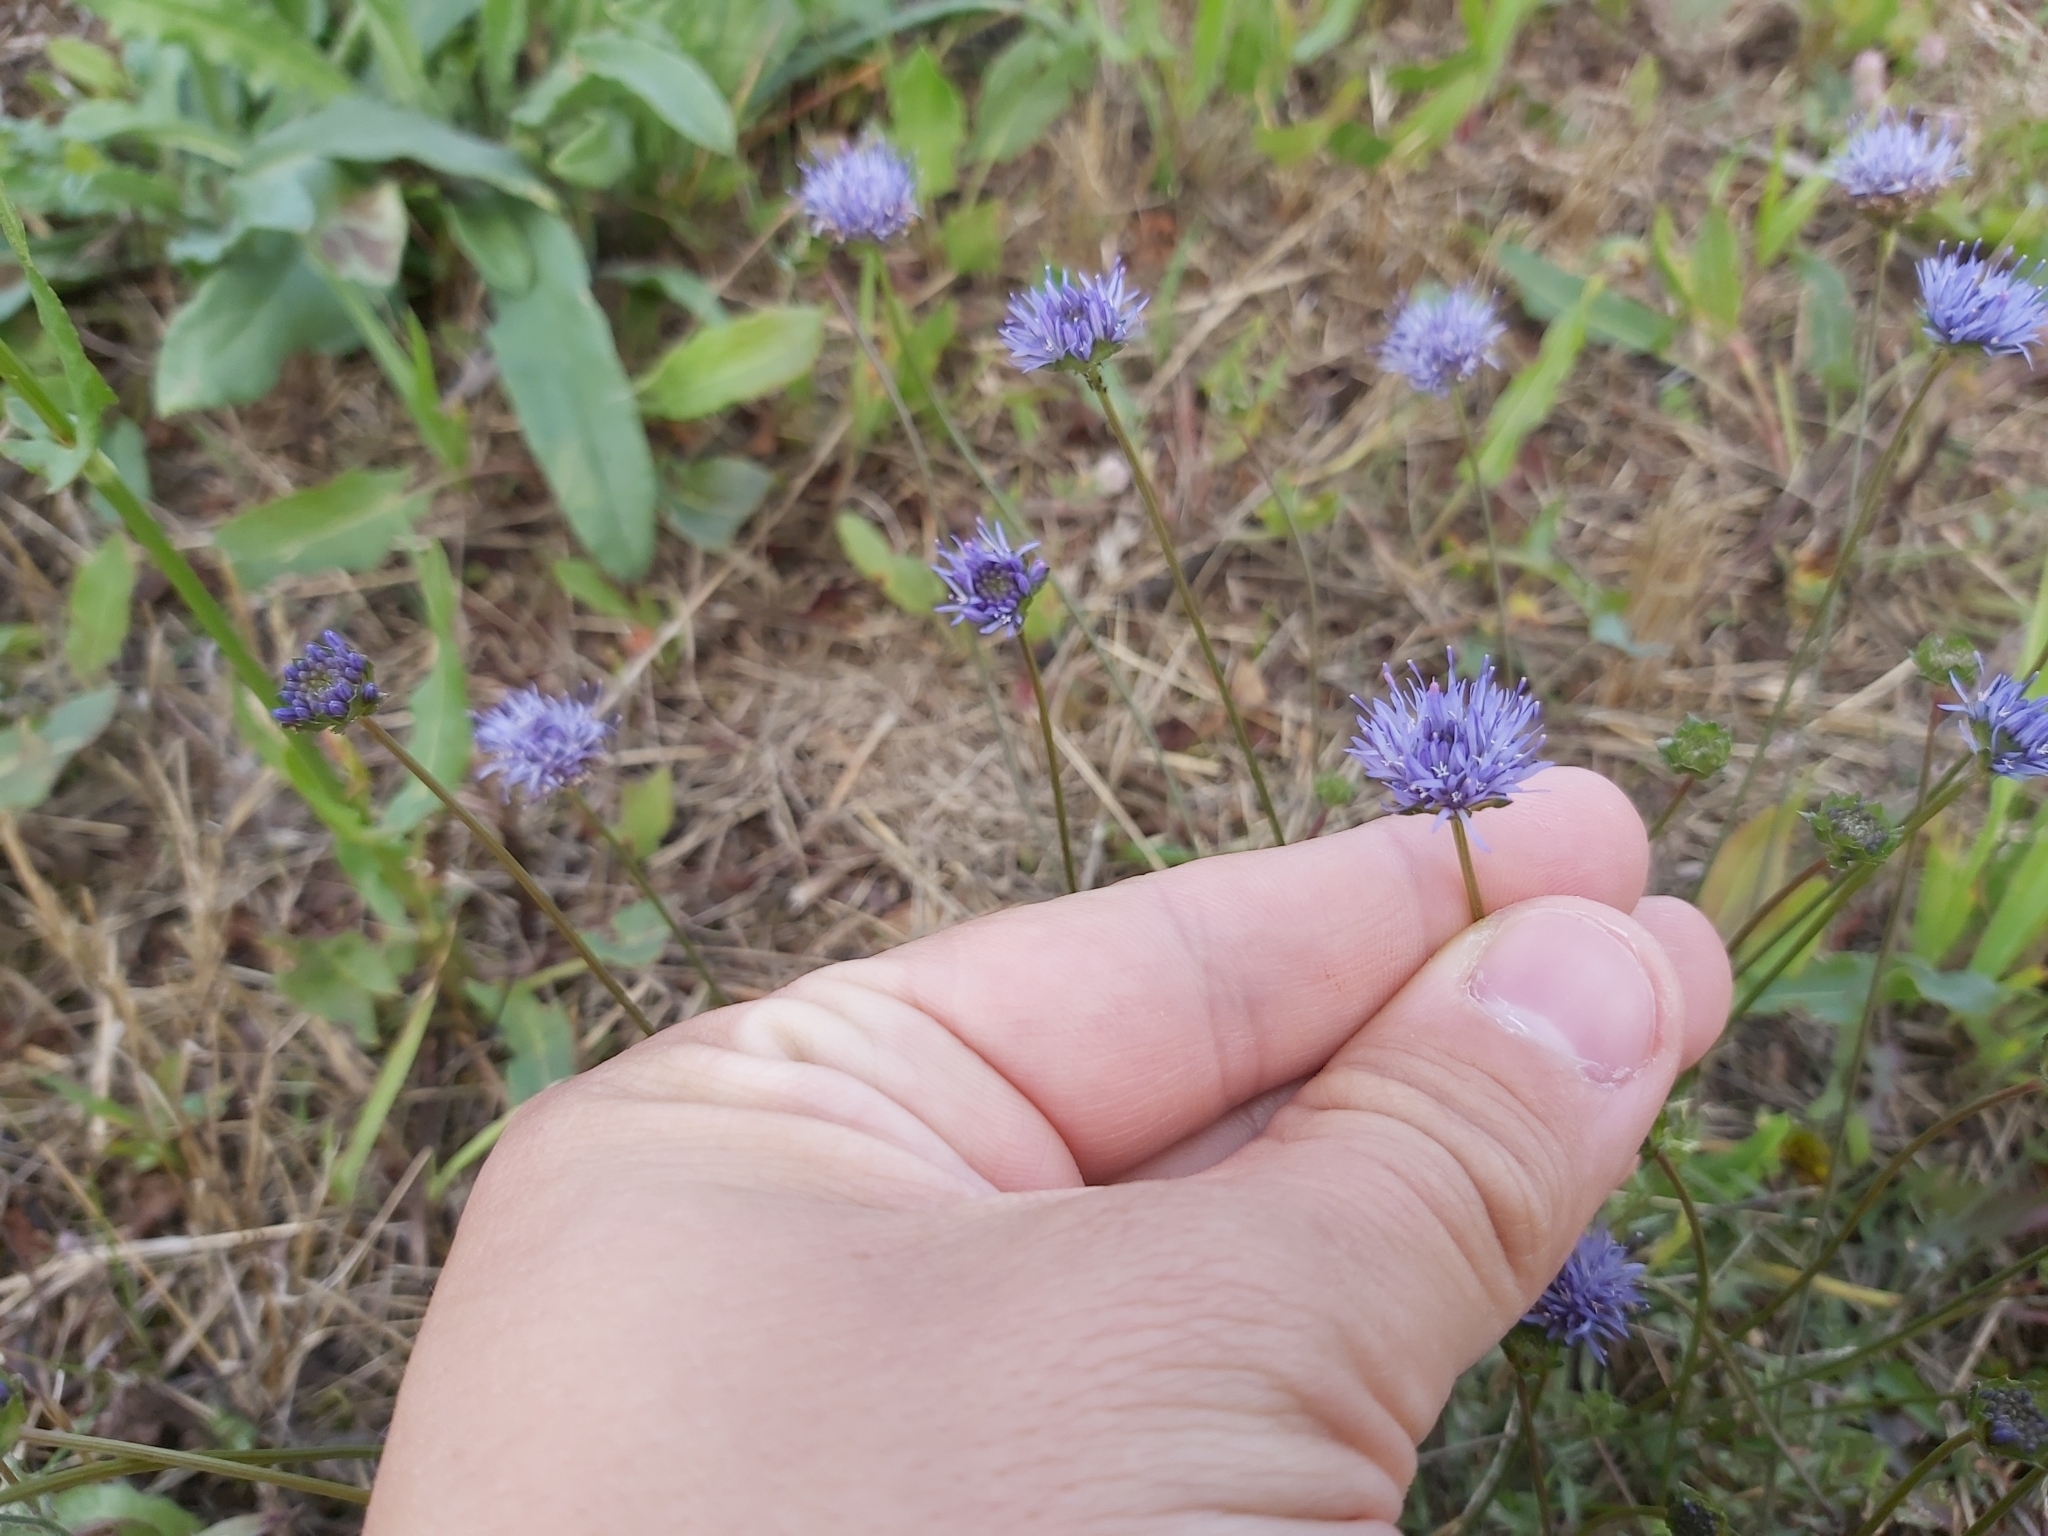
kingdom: Plantae
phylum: Tracheophyta
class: Magnoliopsida
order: Asterales
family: Campanulaceae
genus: Jasione
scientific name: Jasione montana
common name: Sheep's-bit
